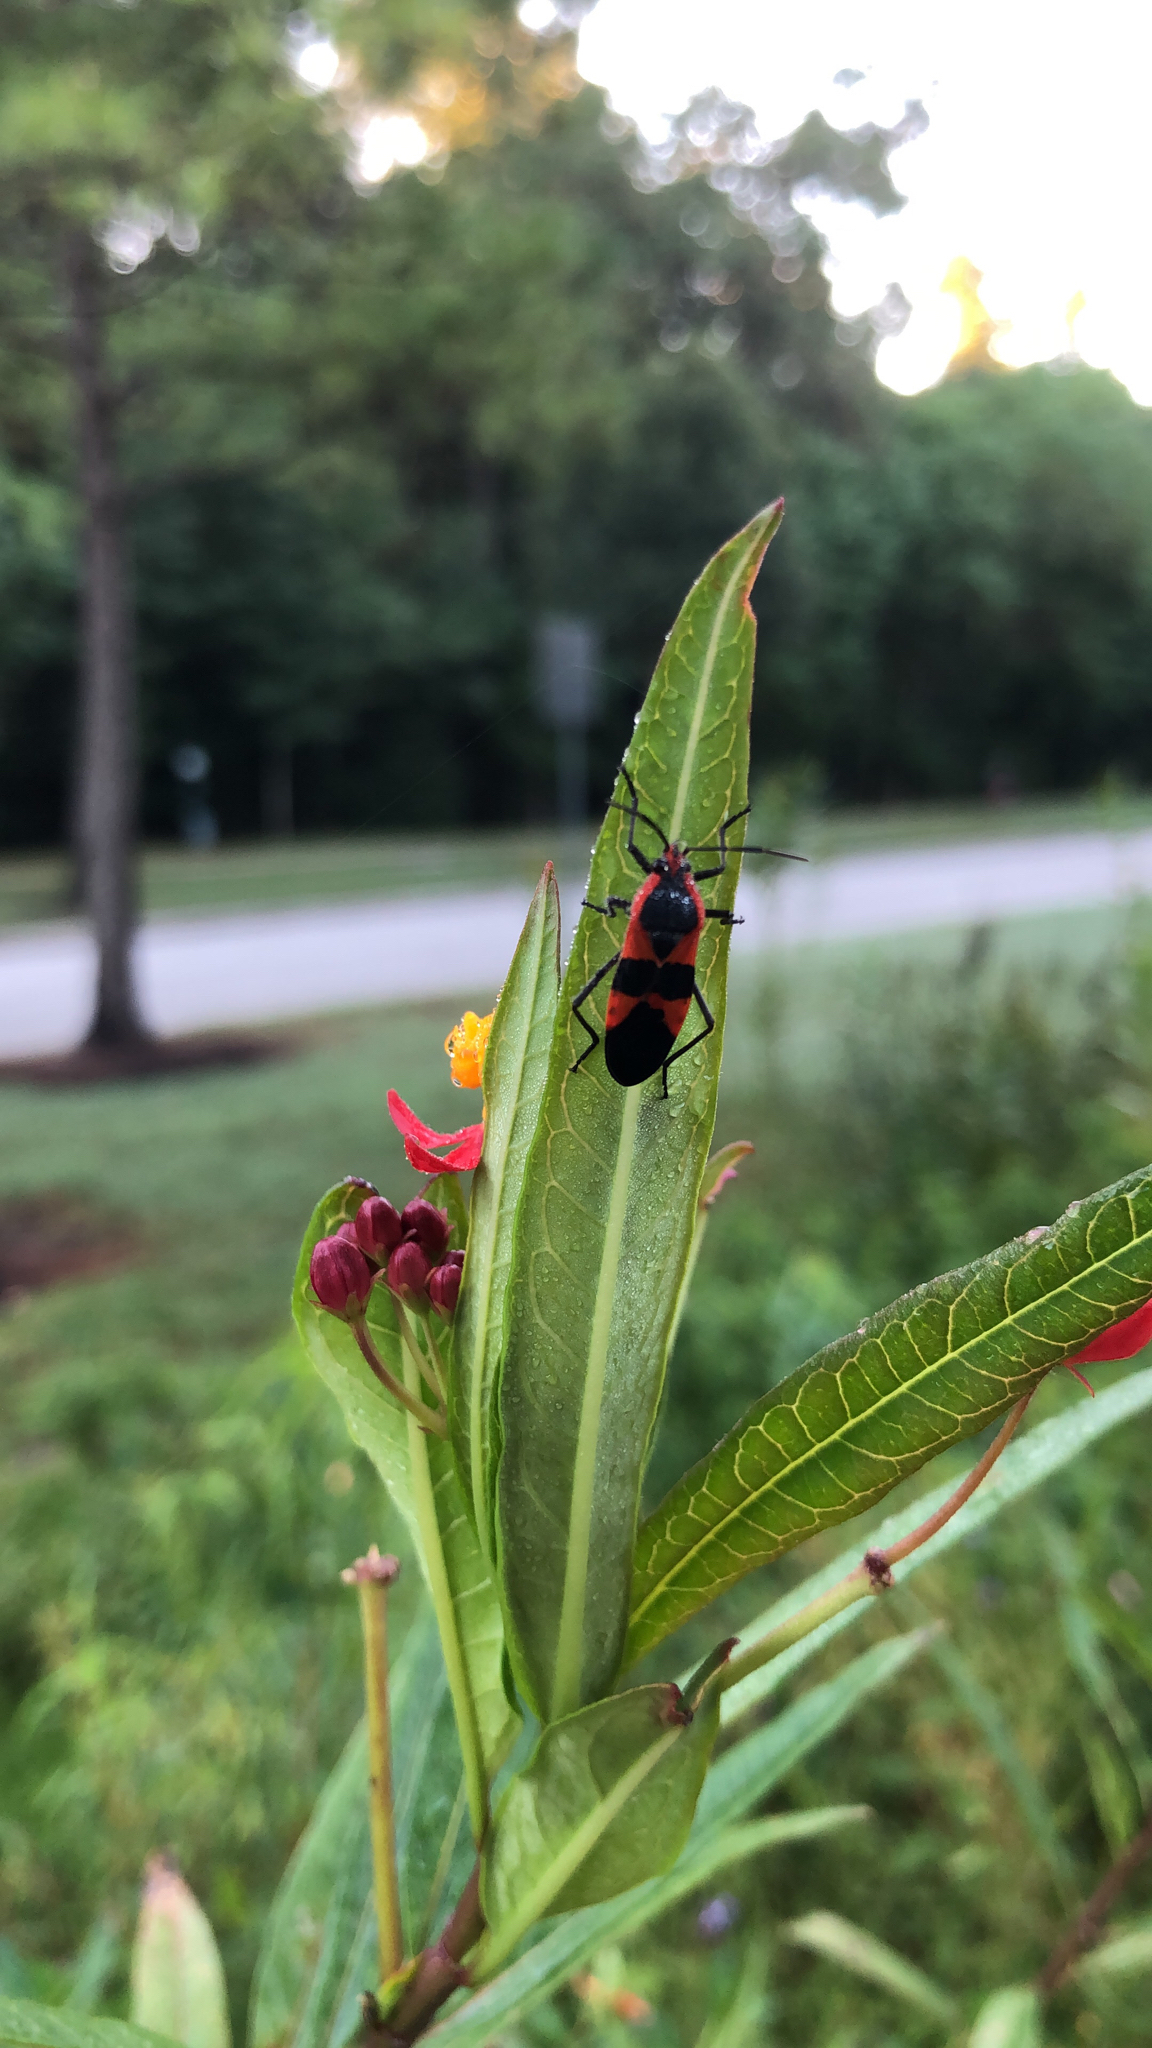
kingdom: Animalia
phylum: Arthropoda
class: Insecta
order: Hemiptera
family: Lygaeidae
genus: Oncopeltus
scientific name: Oncopeltus fasciatus
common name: Large milkweed bug
